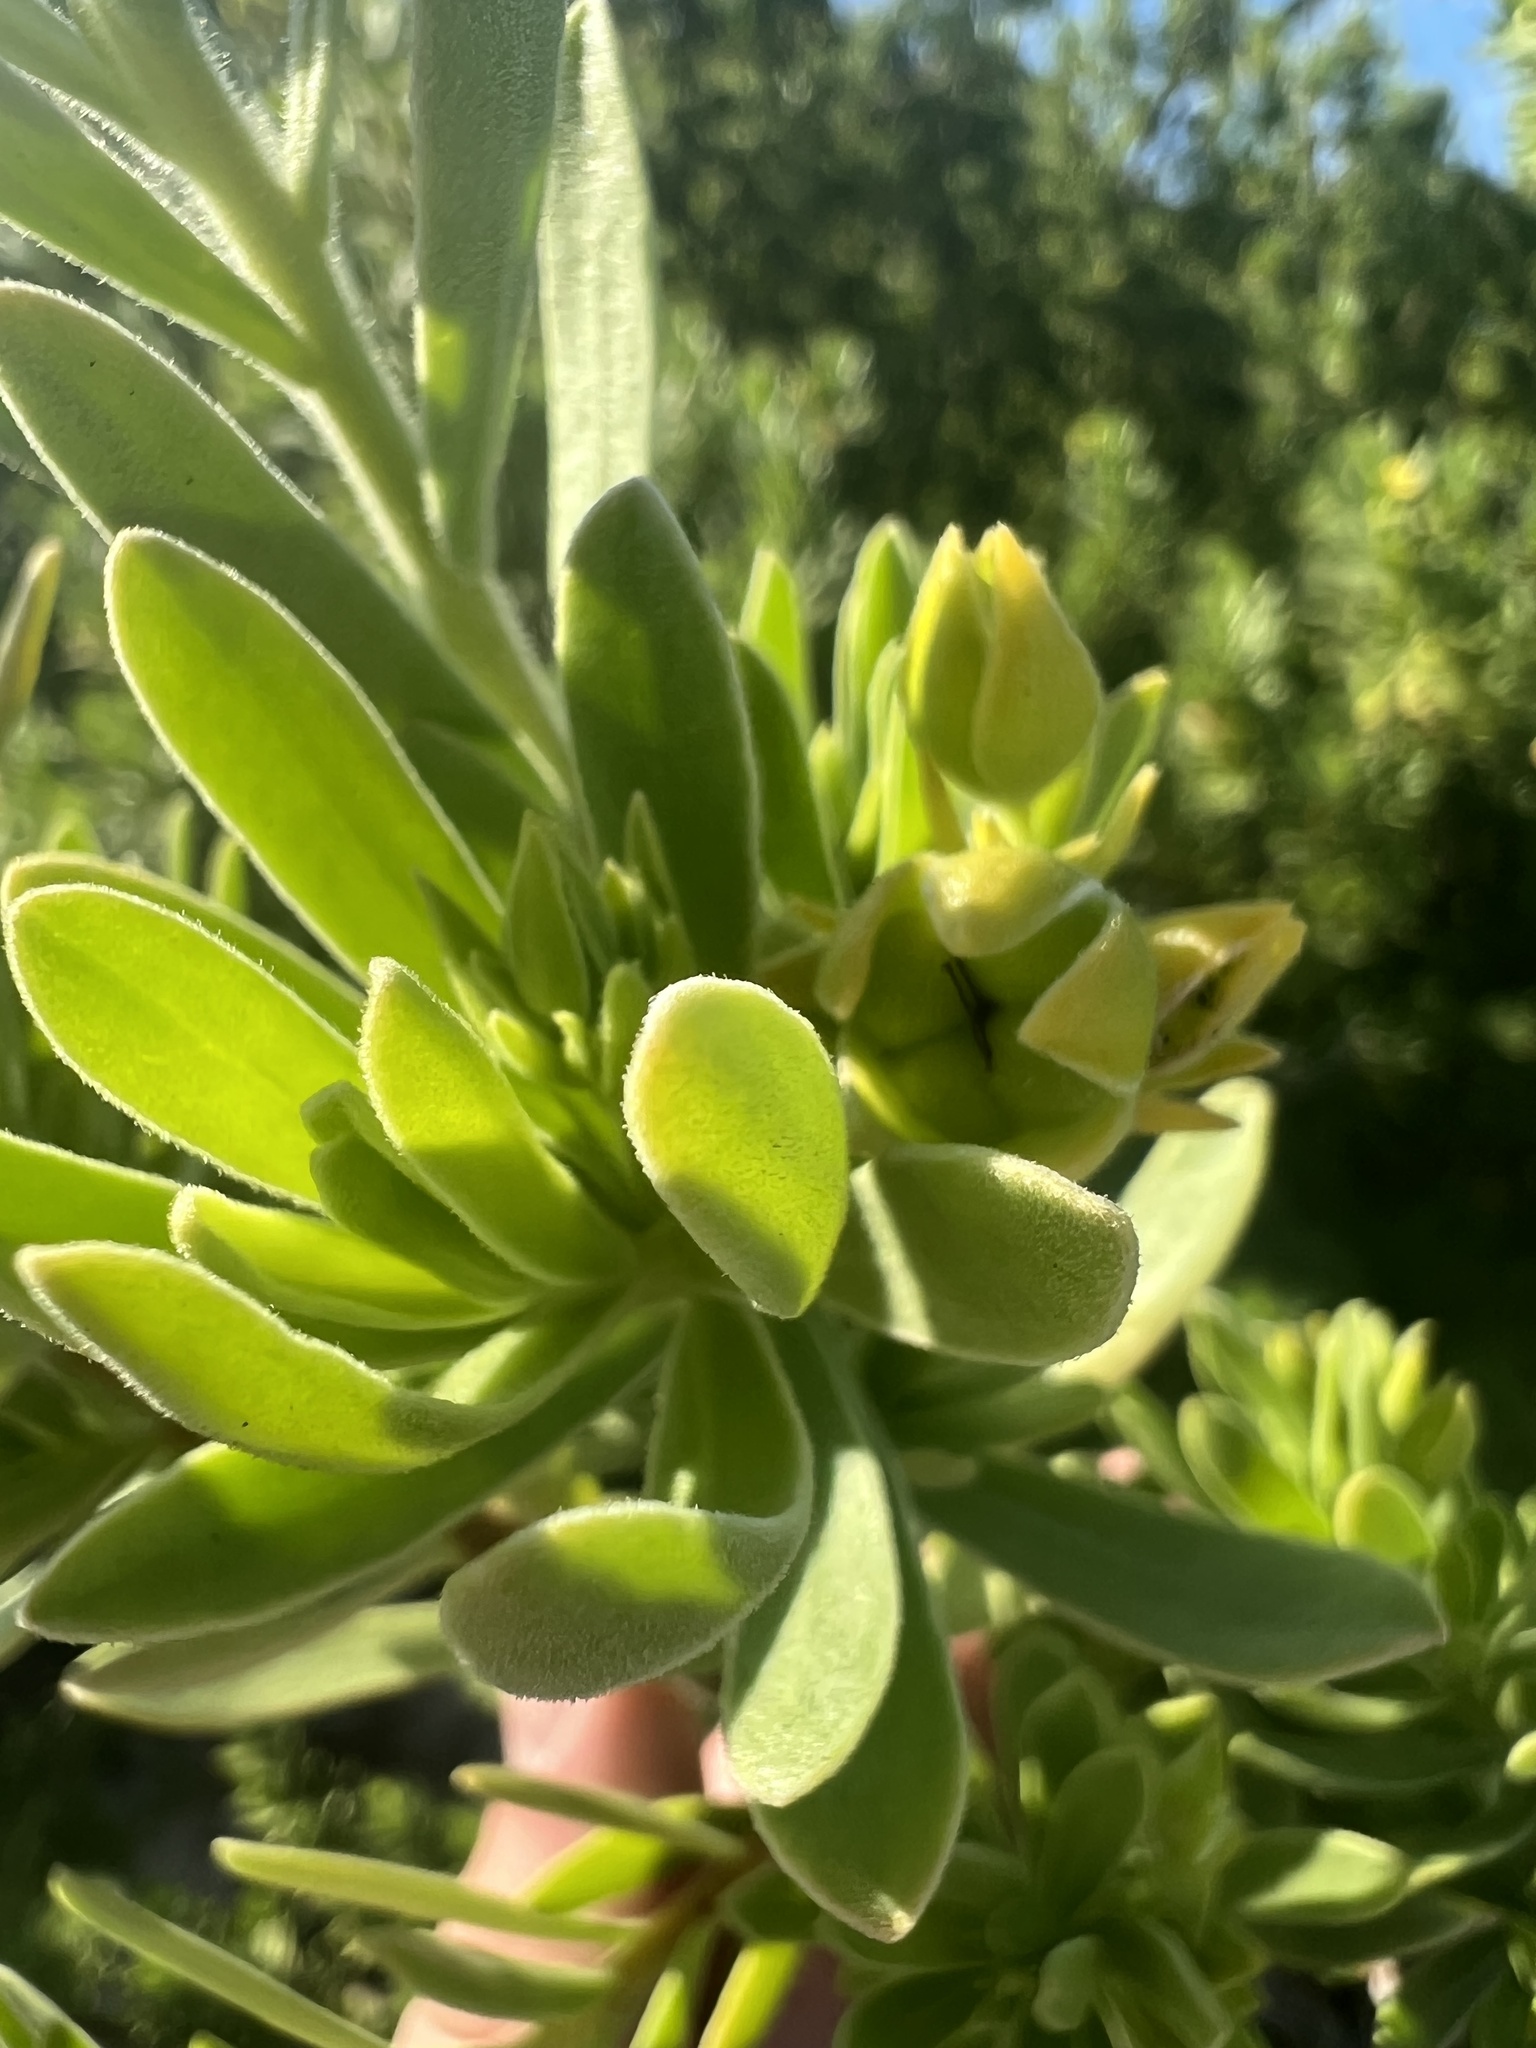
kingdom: Plantae
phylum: Tracheophyta
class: Magnoliopsida
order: Fabales
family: Surianaceae
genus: Suriana
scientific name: Suriana maritima
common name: Bay-cedar
